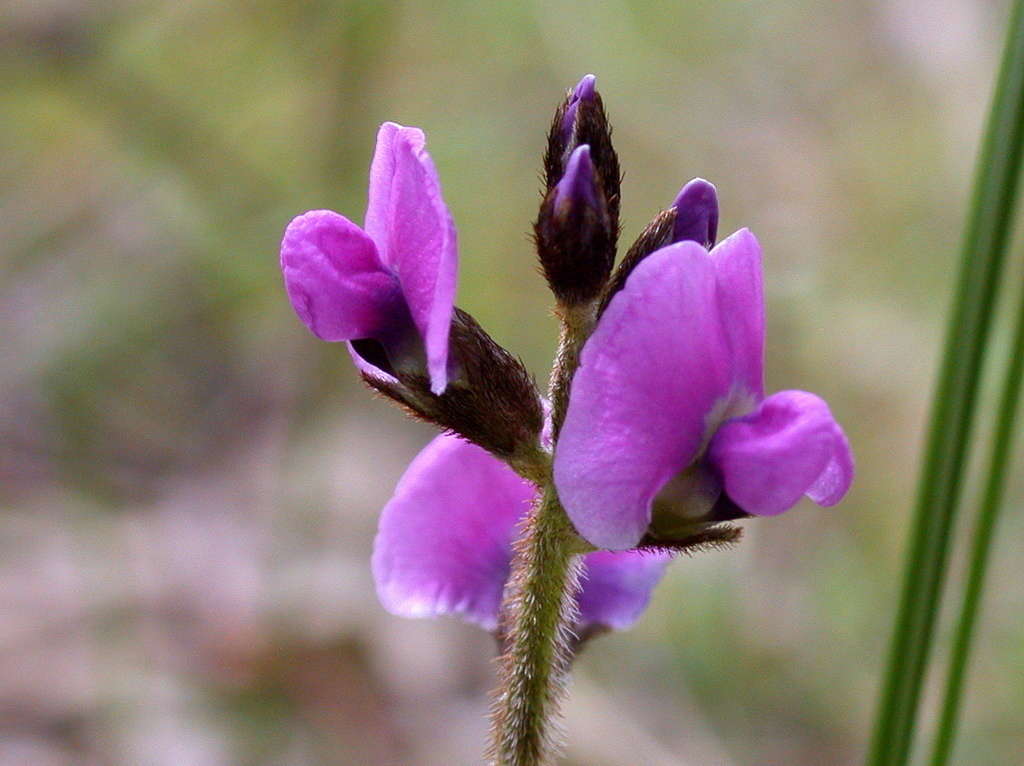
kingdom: Plantae
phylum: Tracheophyta
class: Magnoliopsida
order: Fabales
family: Fabaceae
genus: Glycine
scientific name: Glycine latrobeana
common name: Clover glycine
